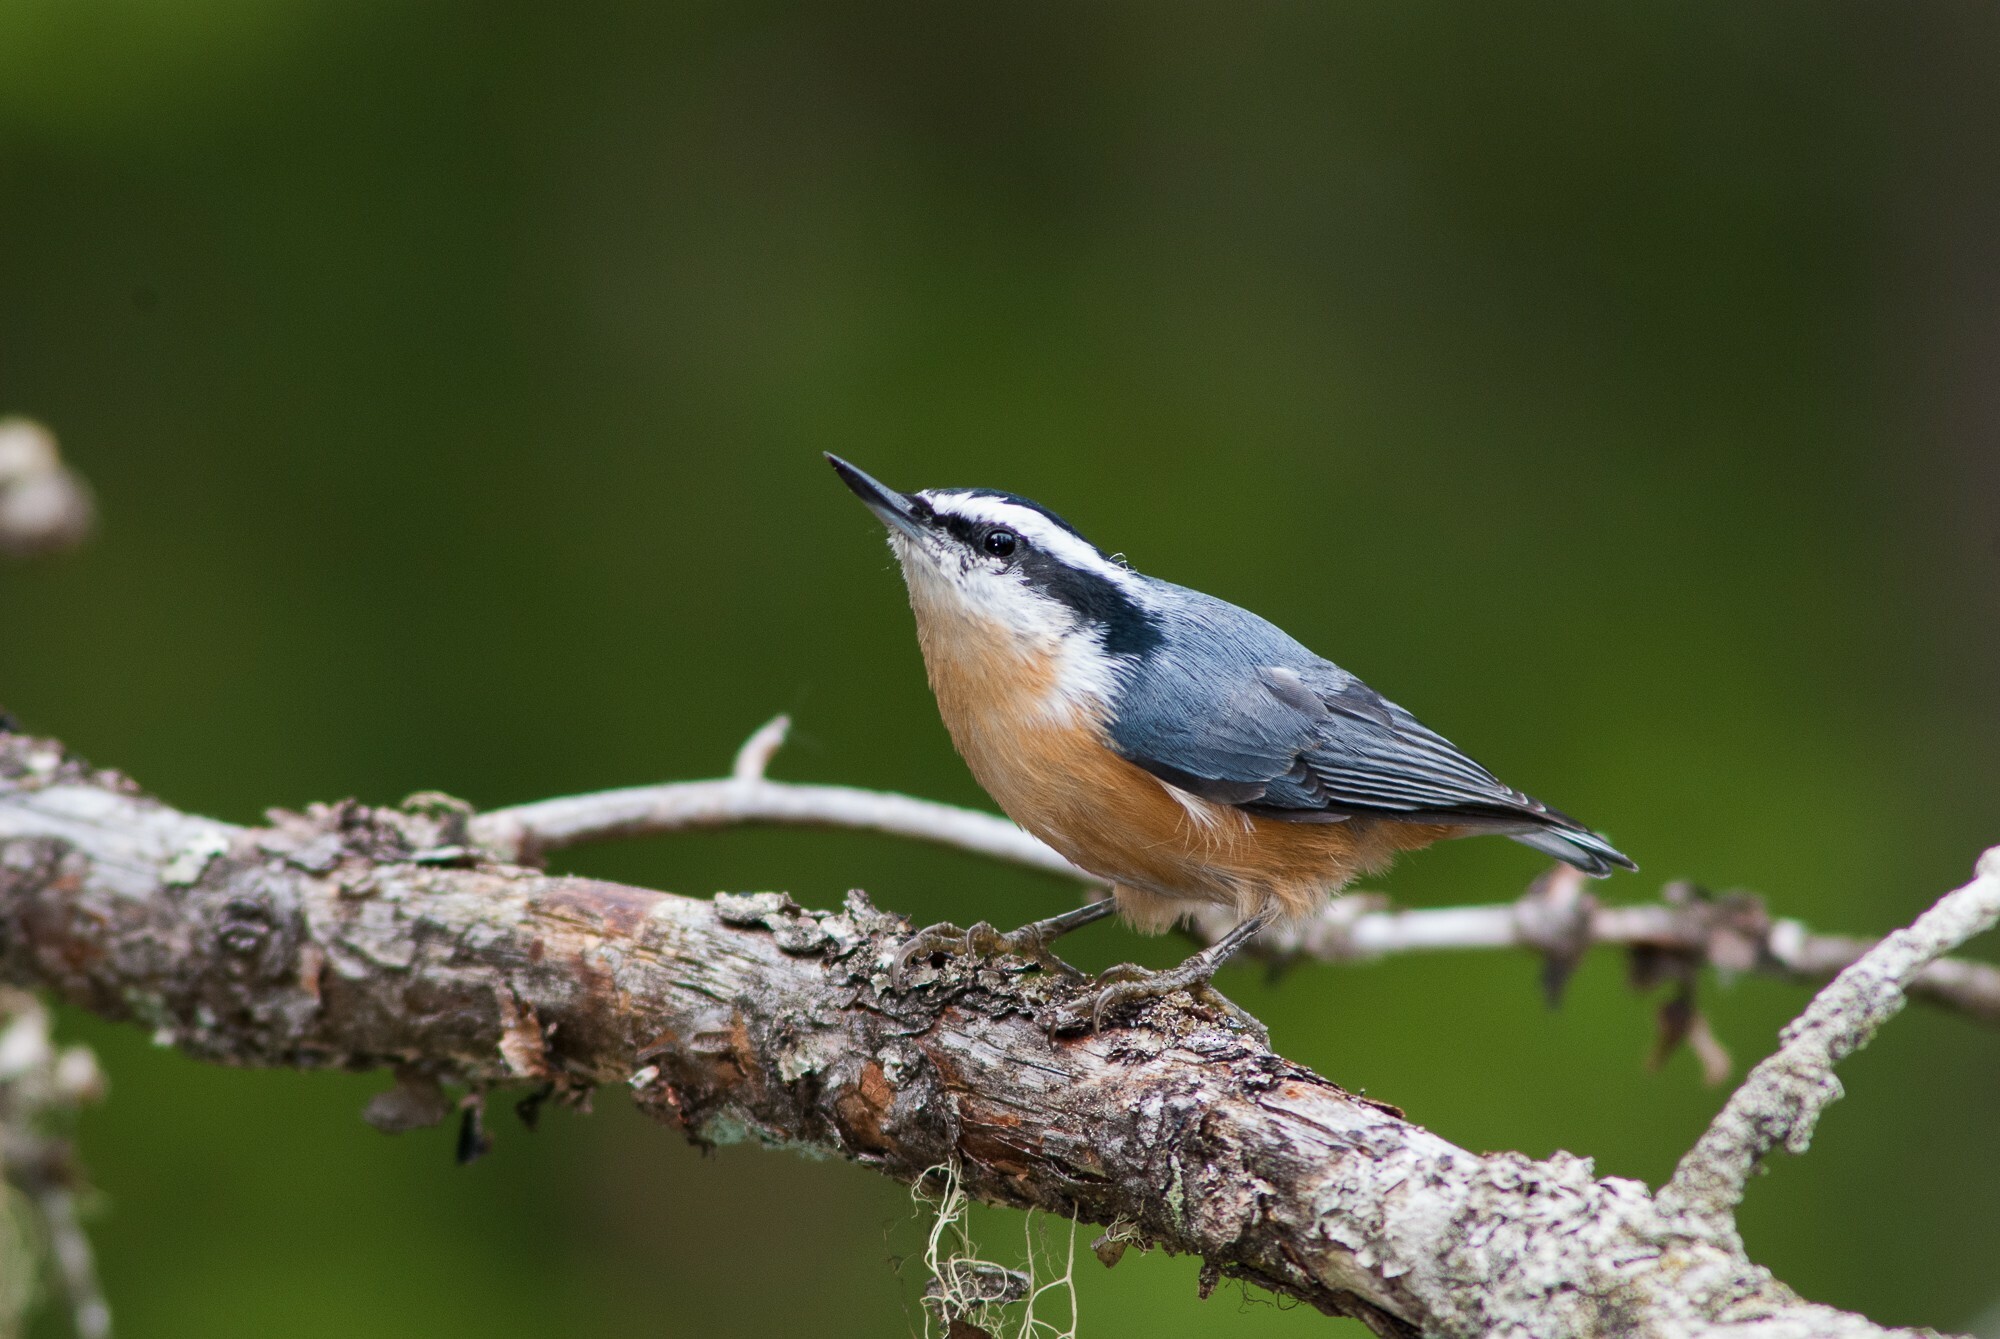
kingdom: Animalia
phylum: Chordata
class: Aves
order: Passeriformes
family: Sittidae
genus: Sitta
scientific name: Sitta canadensis
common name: Red-breasted nuthatch
